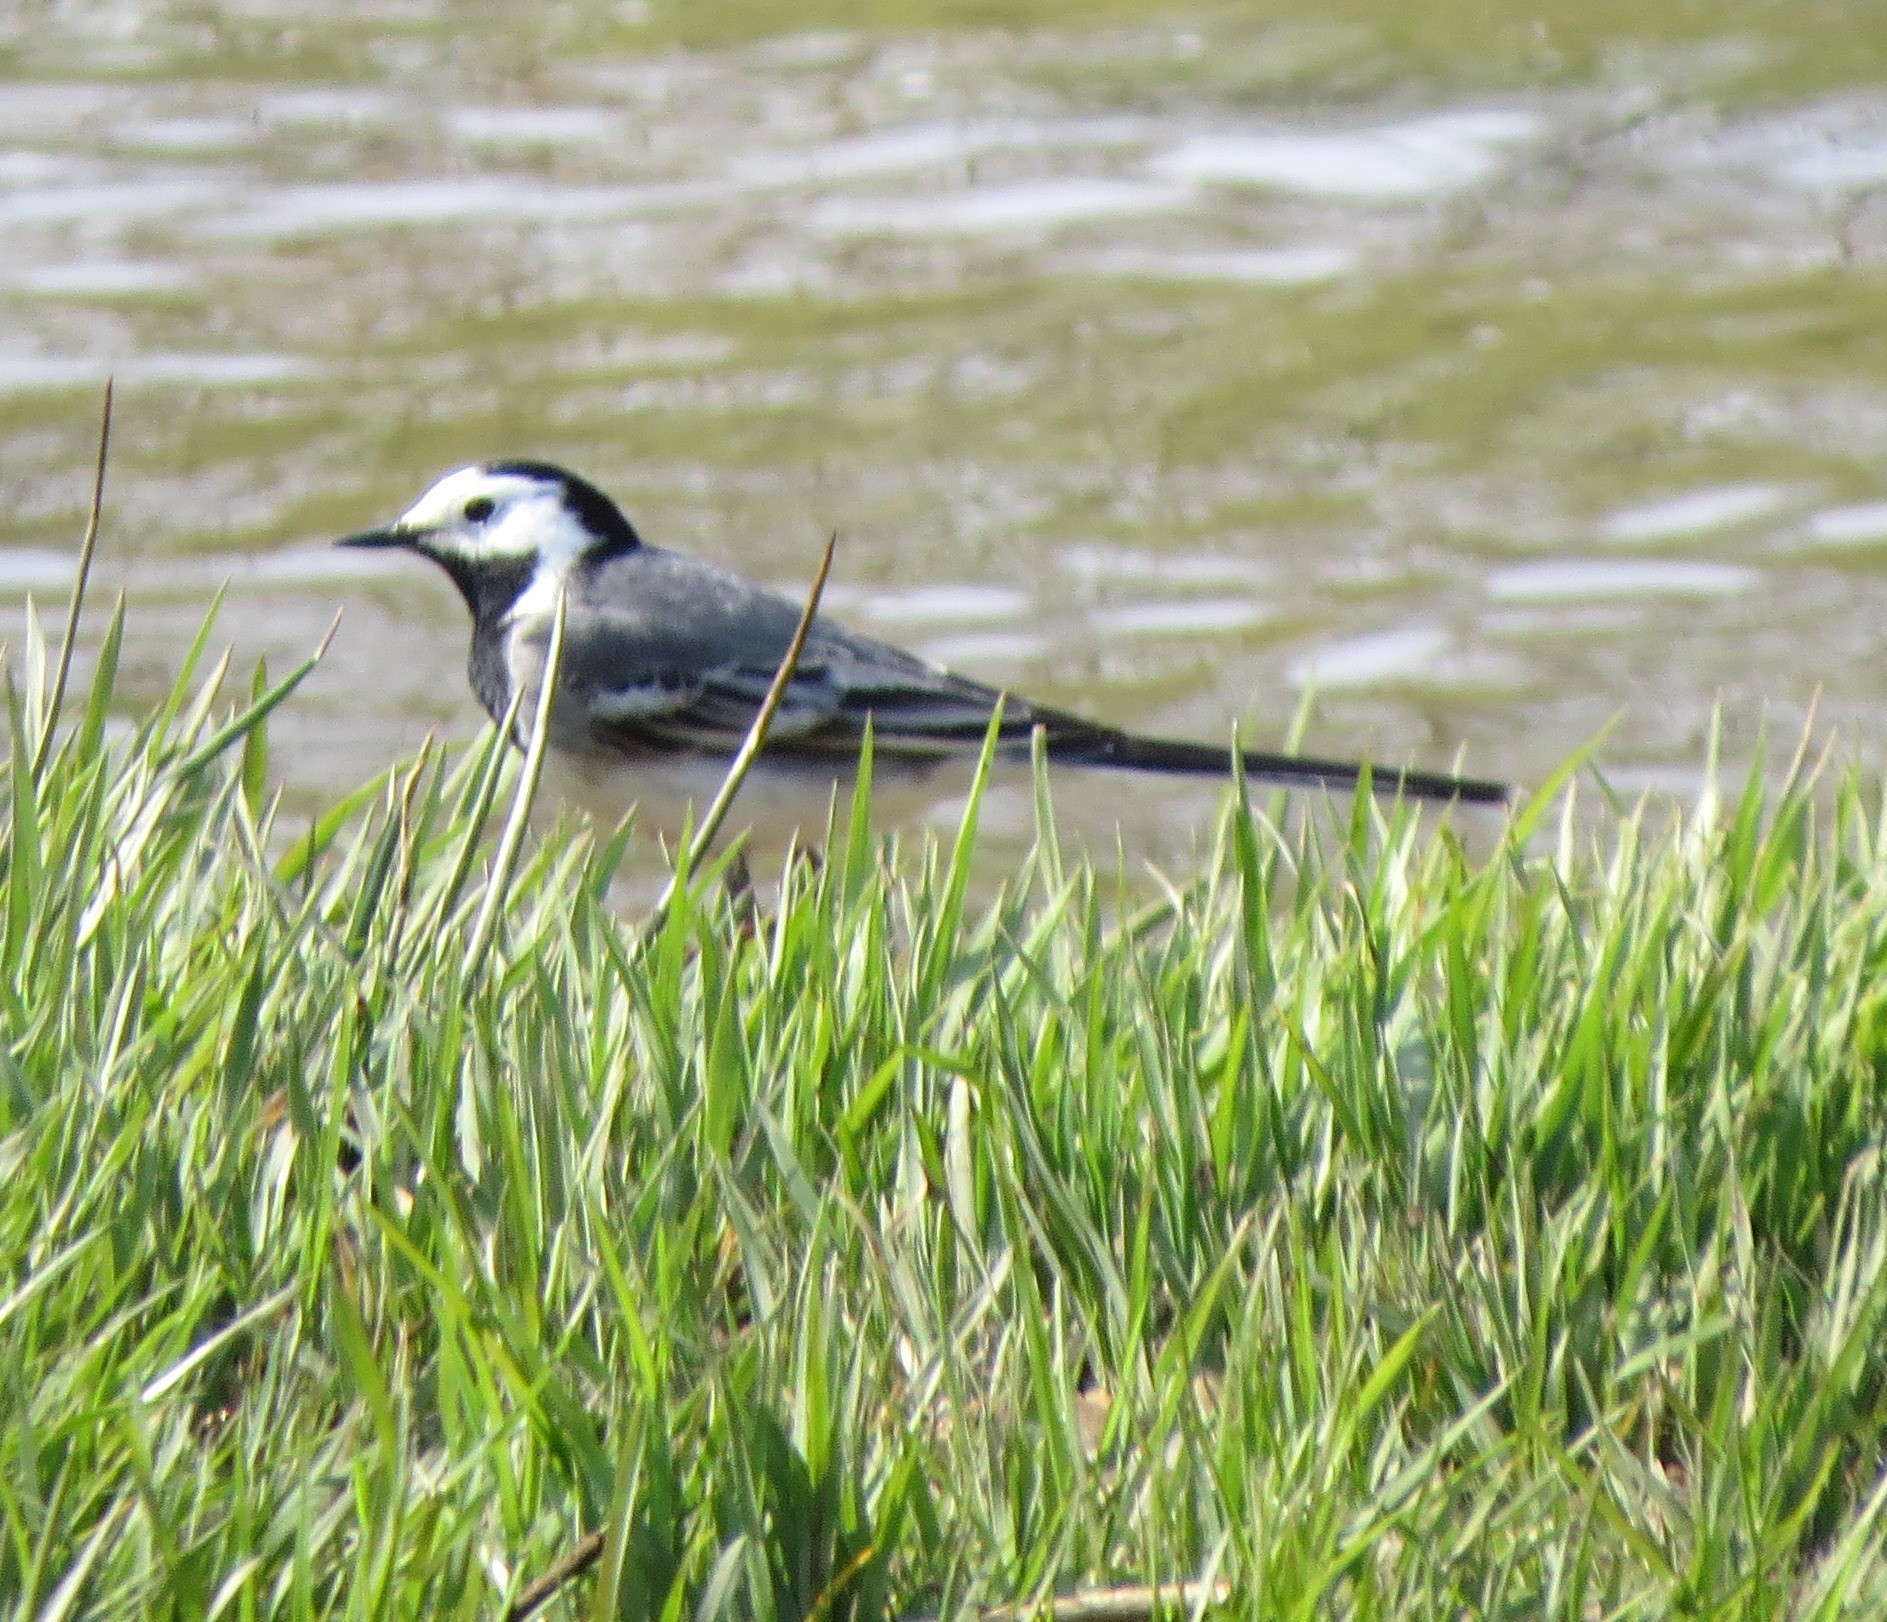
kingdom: Animalia
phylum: Chordata
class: Aves
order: Passeriformes
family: Motacillidae
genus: Motacilla
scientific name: Motacilla alba
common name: White wagtail
